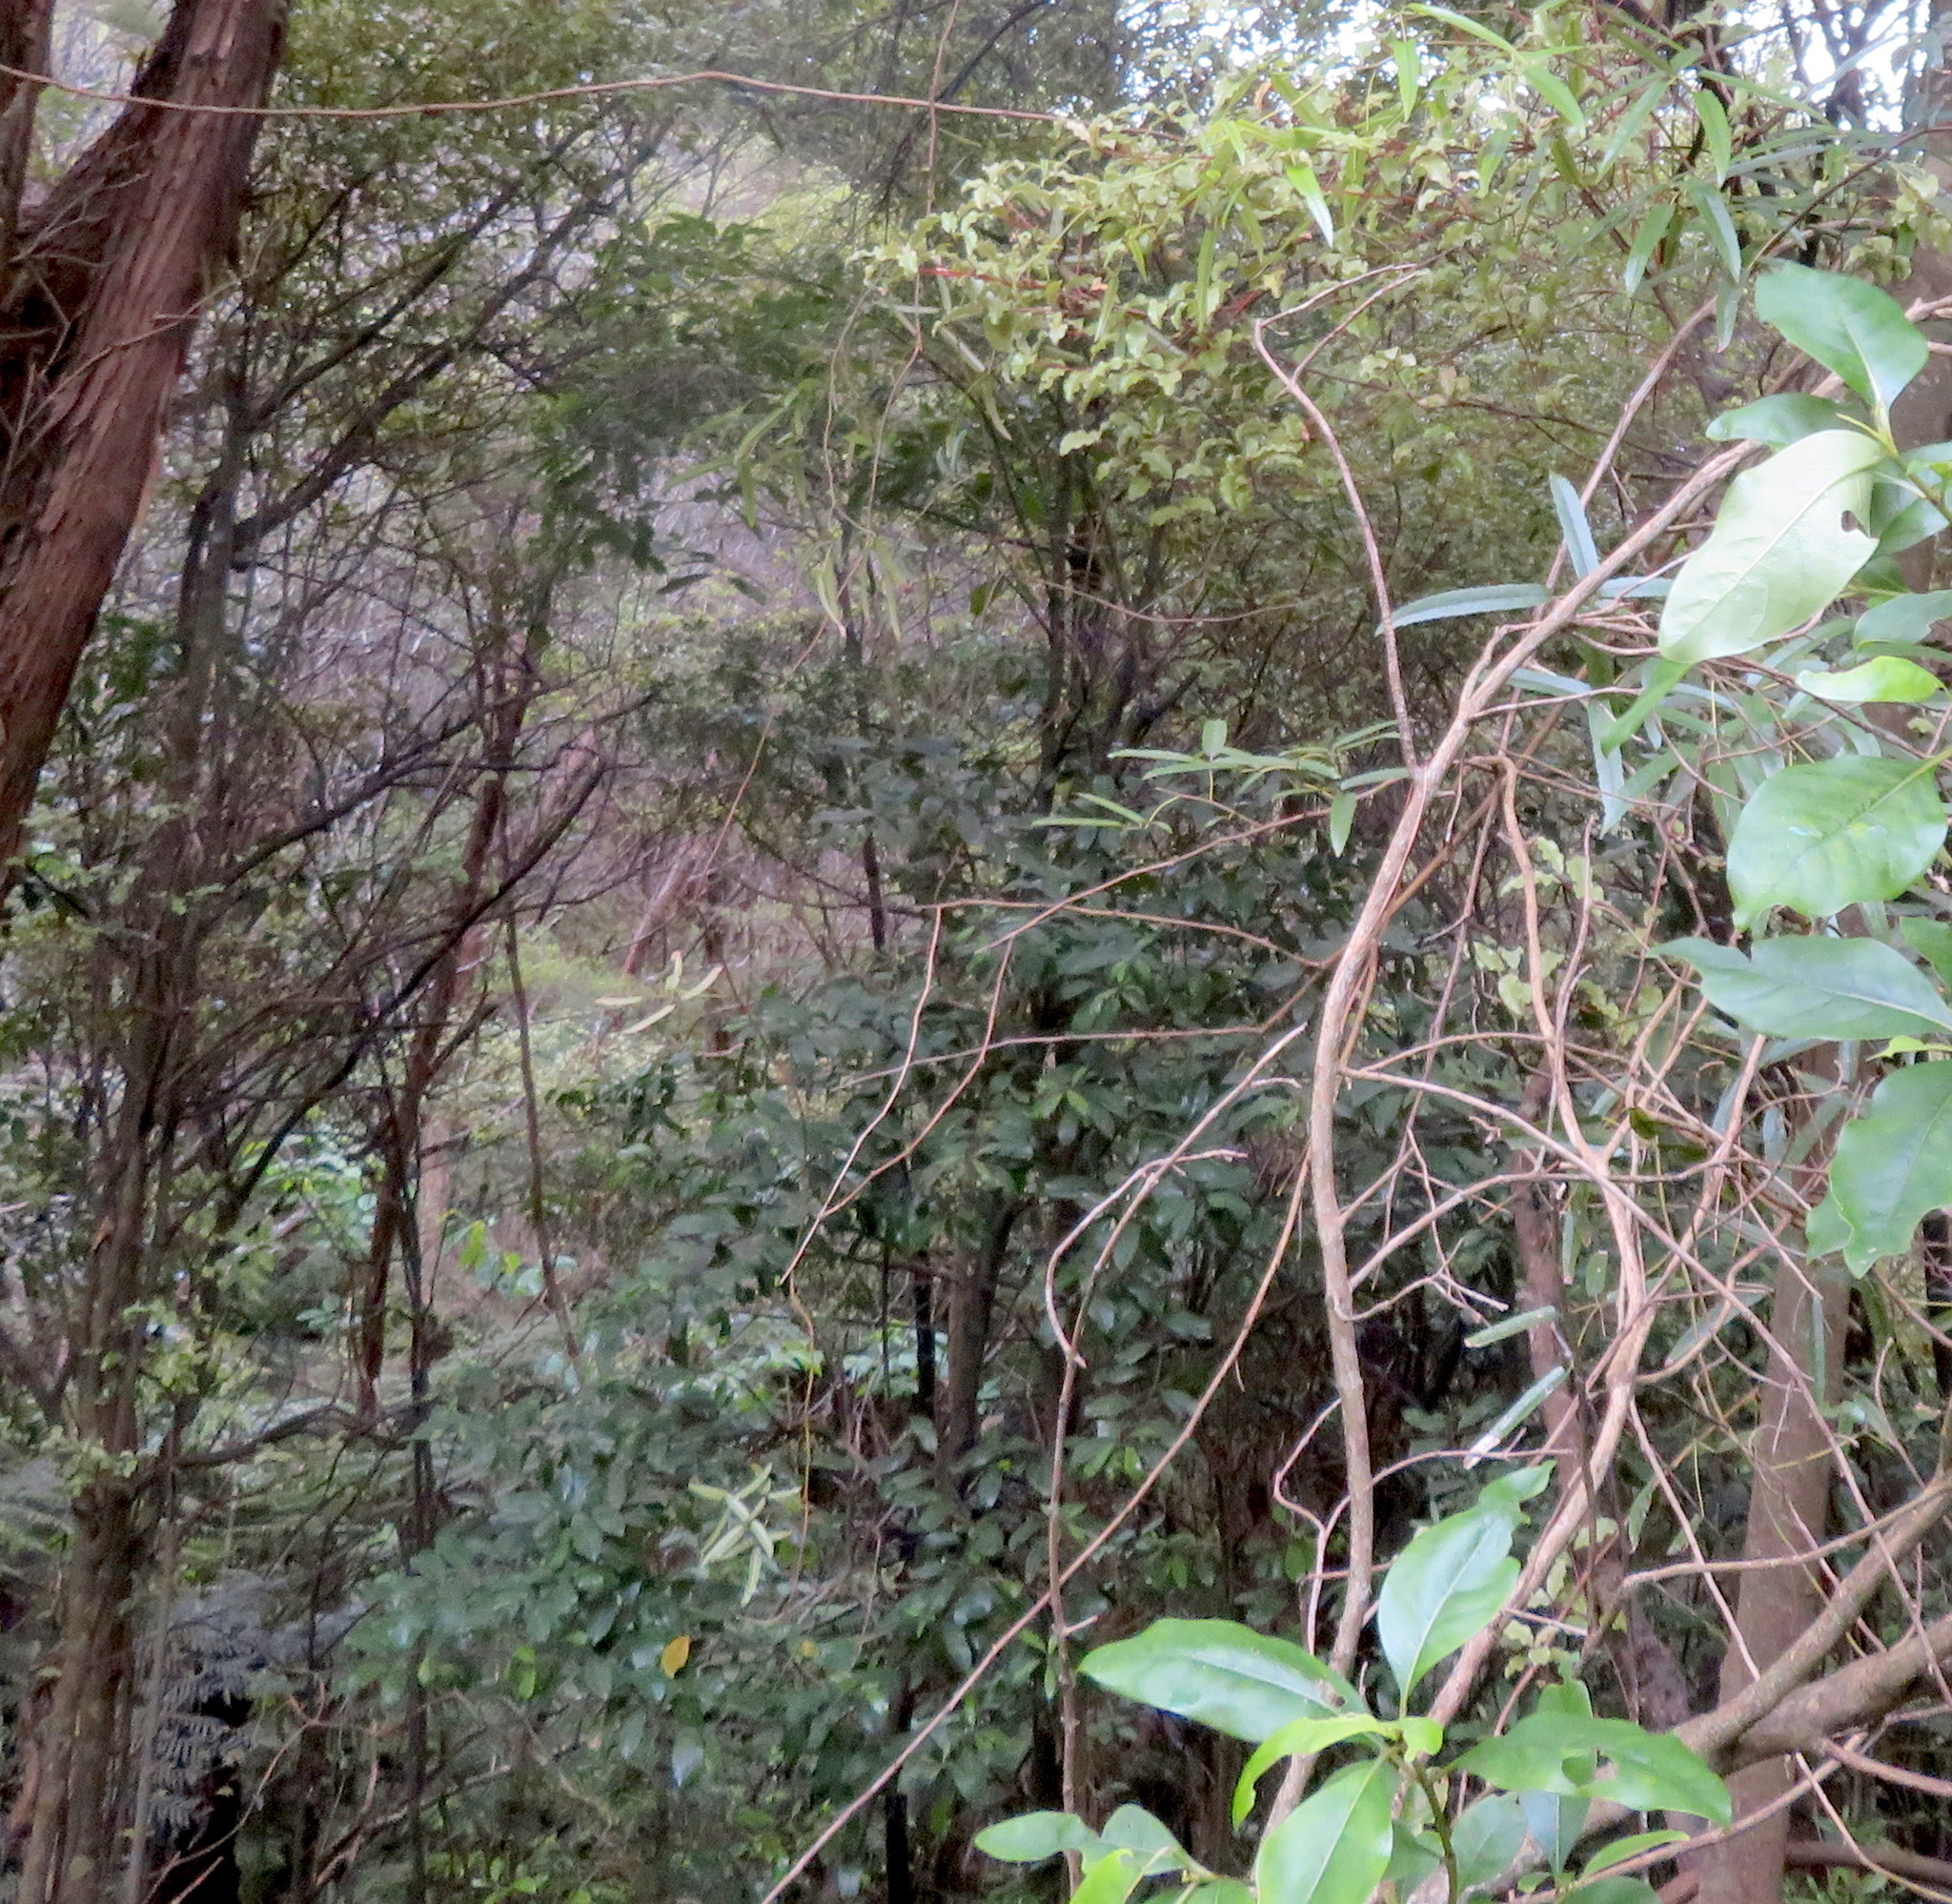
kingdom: Plantae
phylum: Tracheophyta
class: Magnoliopsida
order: Laurales
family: Monimiaceae
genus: Hedycarya
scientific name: Hedycarya arborea
